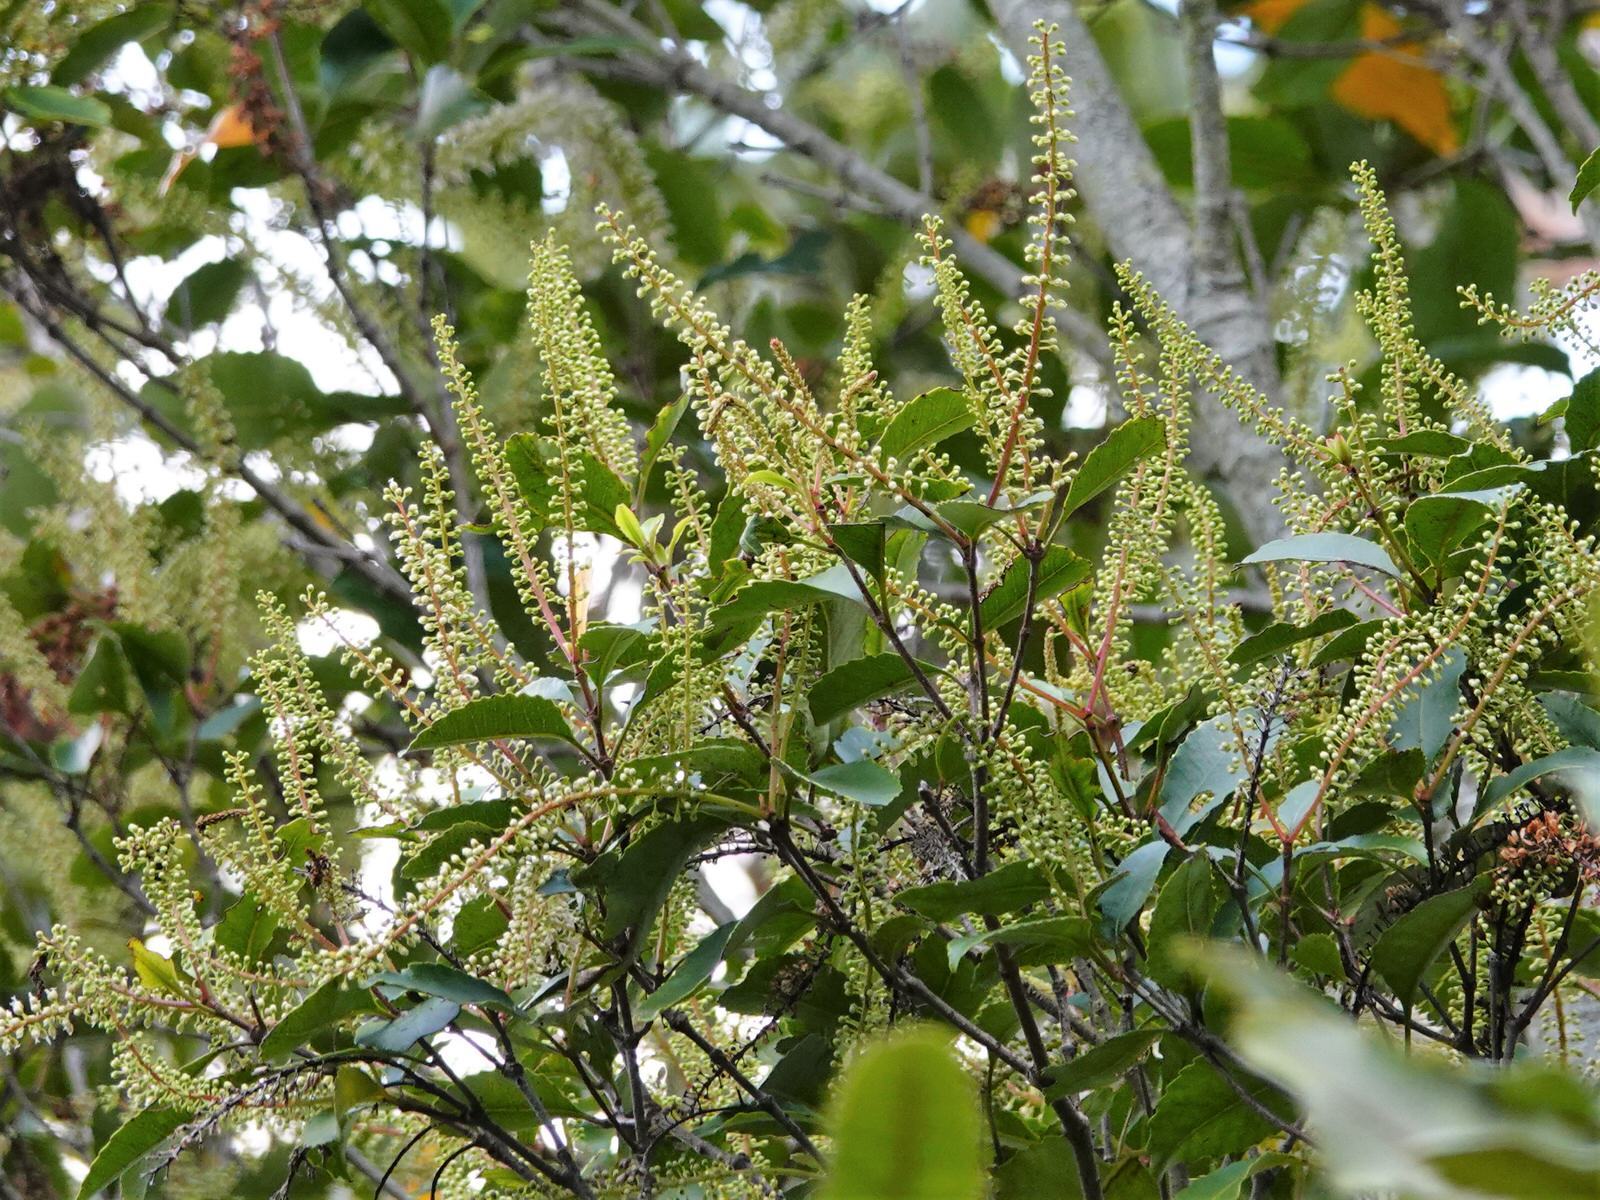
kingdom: Plantae
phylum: Tracheophyta
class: Magnoliopsida
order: Oxalidales
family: Cunoniaceae
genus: Pterophylla
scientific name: Pterophylla racemosa
